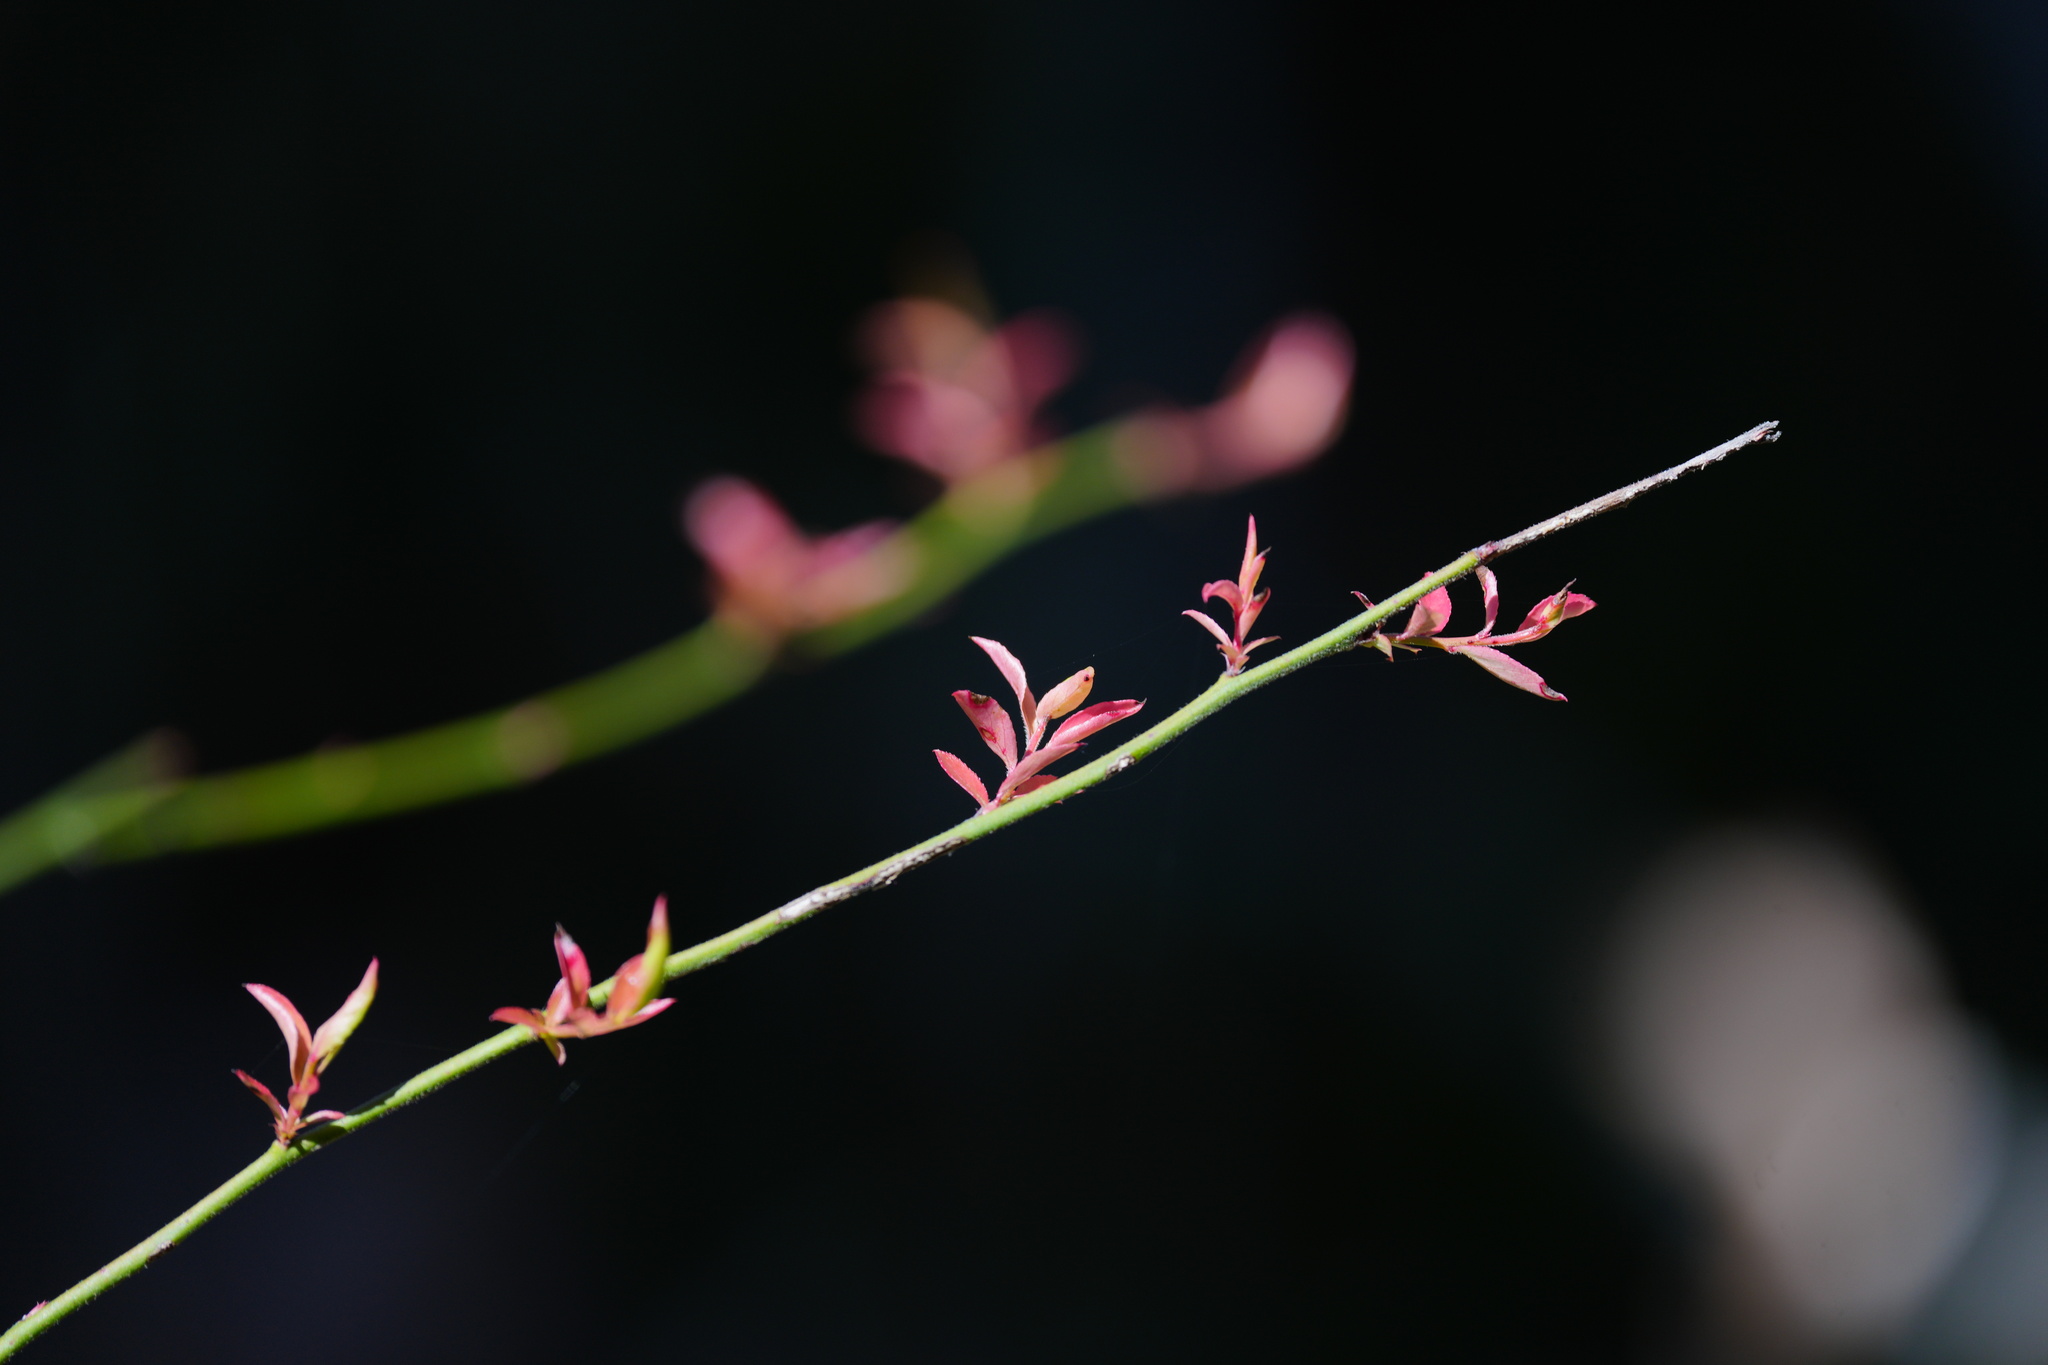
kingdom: Plantae
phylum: Tracheophyta
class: Magnoliopsida
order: Ericales
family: Ericaceae
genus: Vaccinium
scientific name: Vaccinium corymbosum
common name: Blueberry
